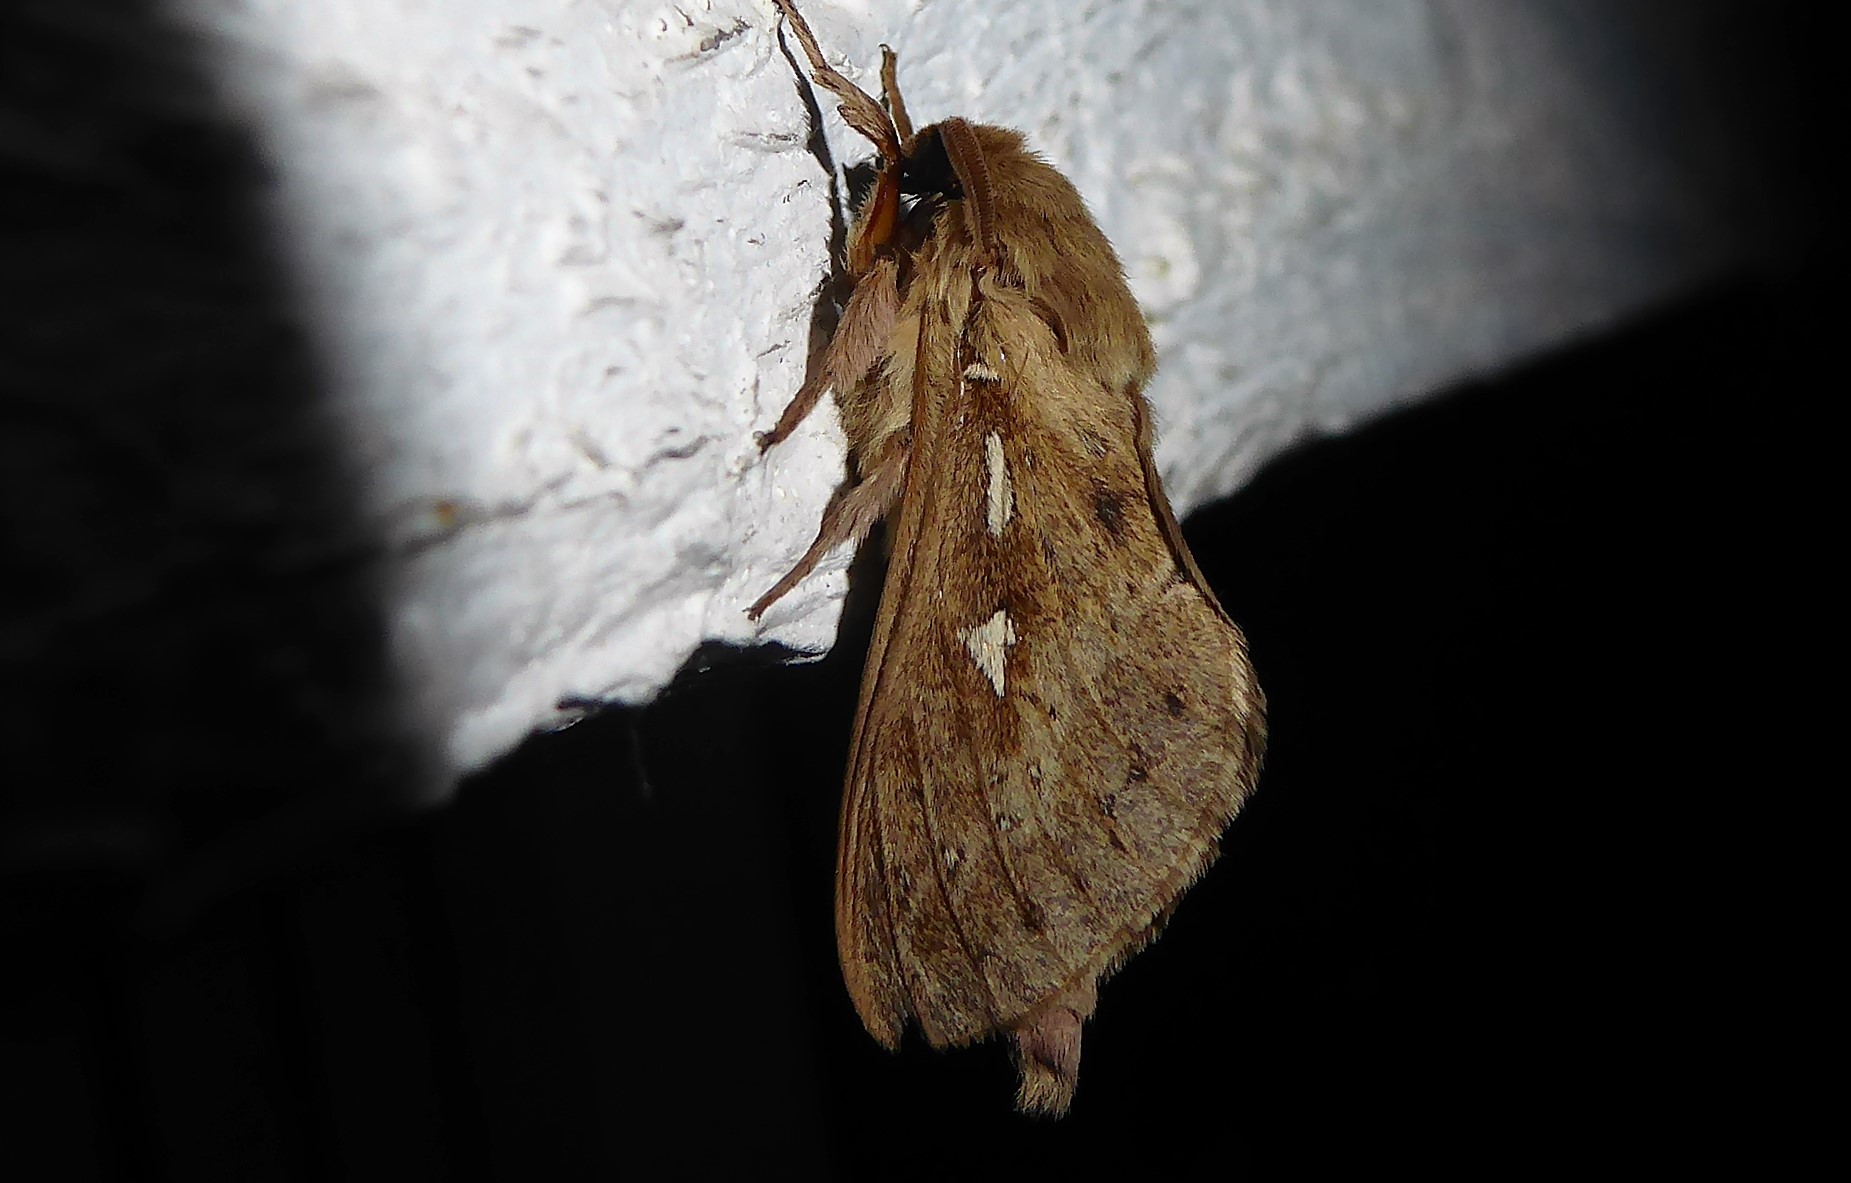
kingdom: Animalia
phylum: Arthropoda
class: Insecta
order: Lepidoptera
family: Hepialidae
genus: Wiseana
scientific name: Wiseana copularis
